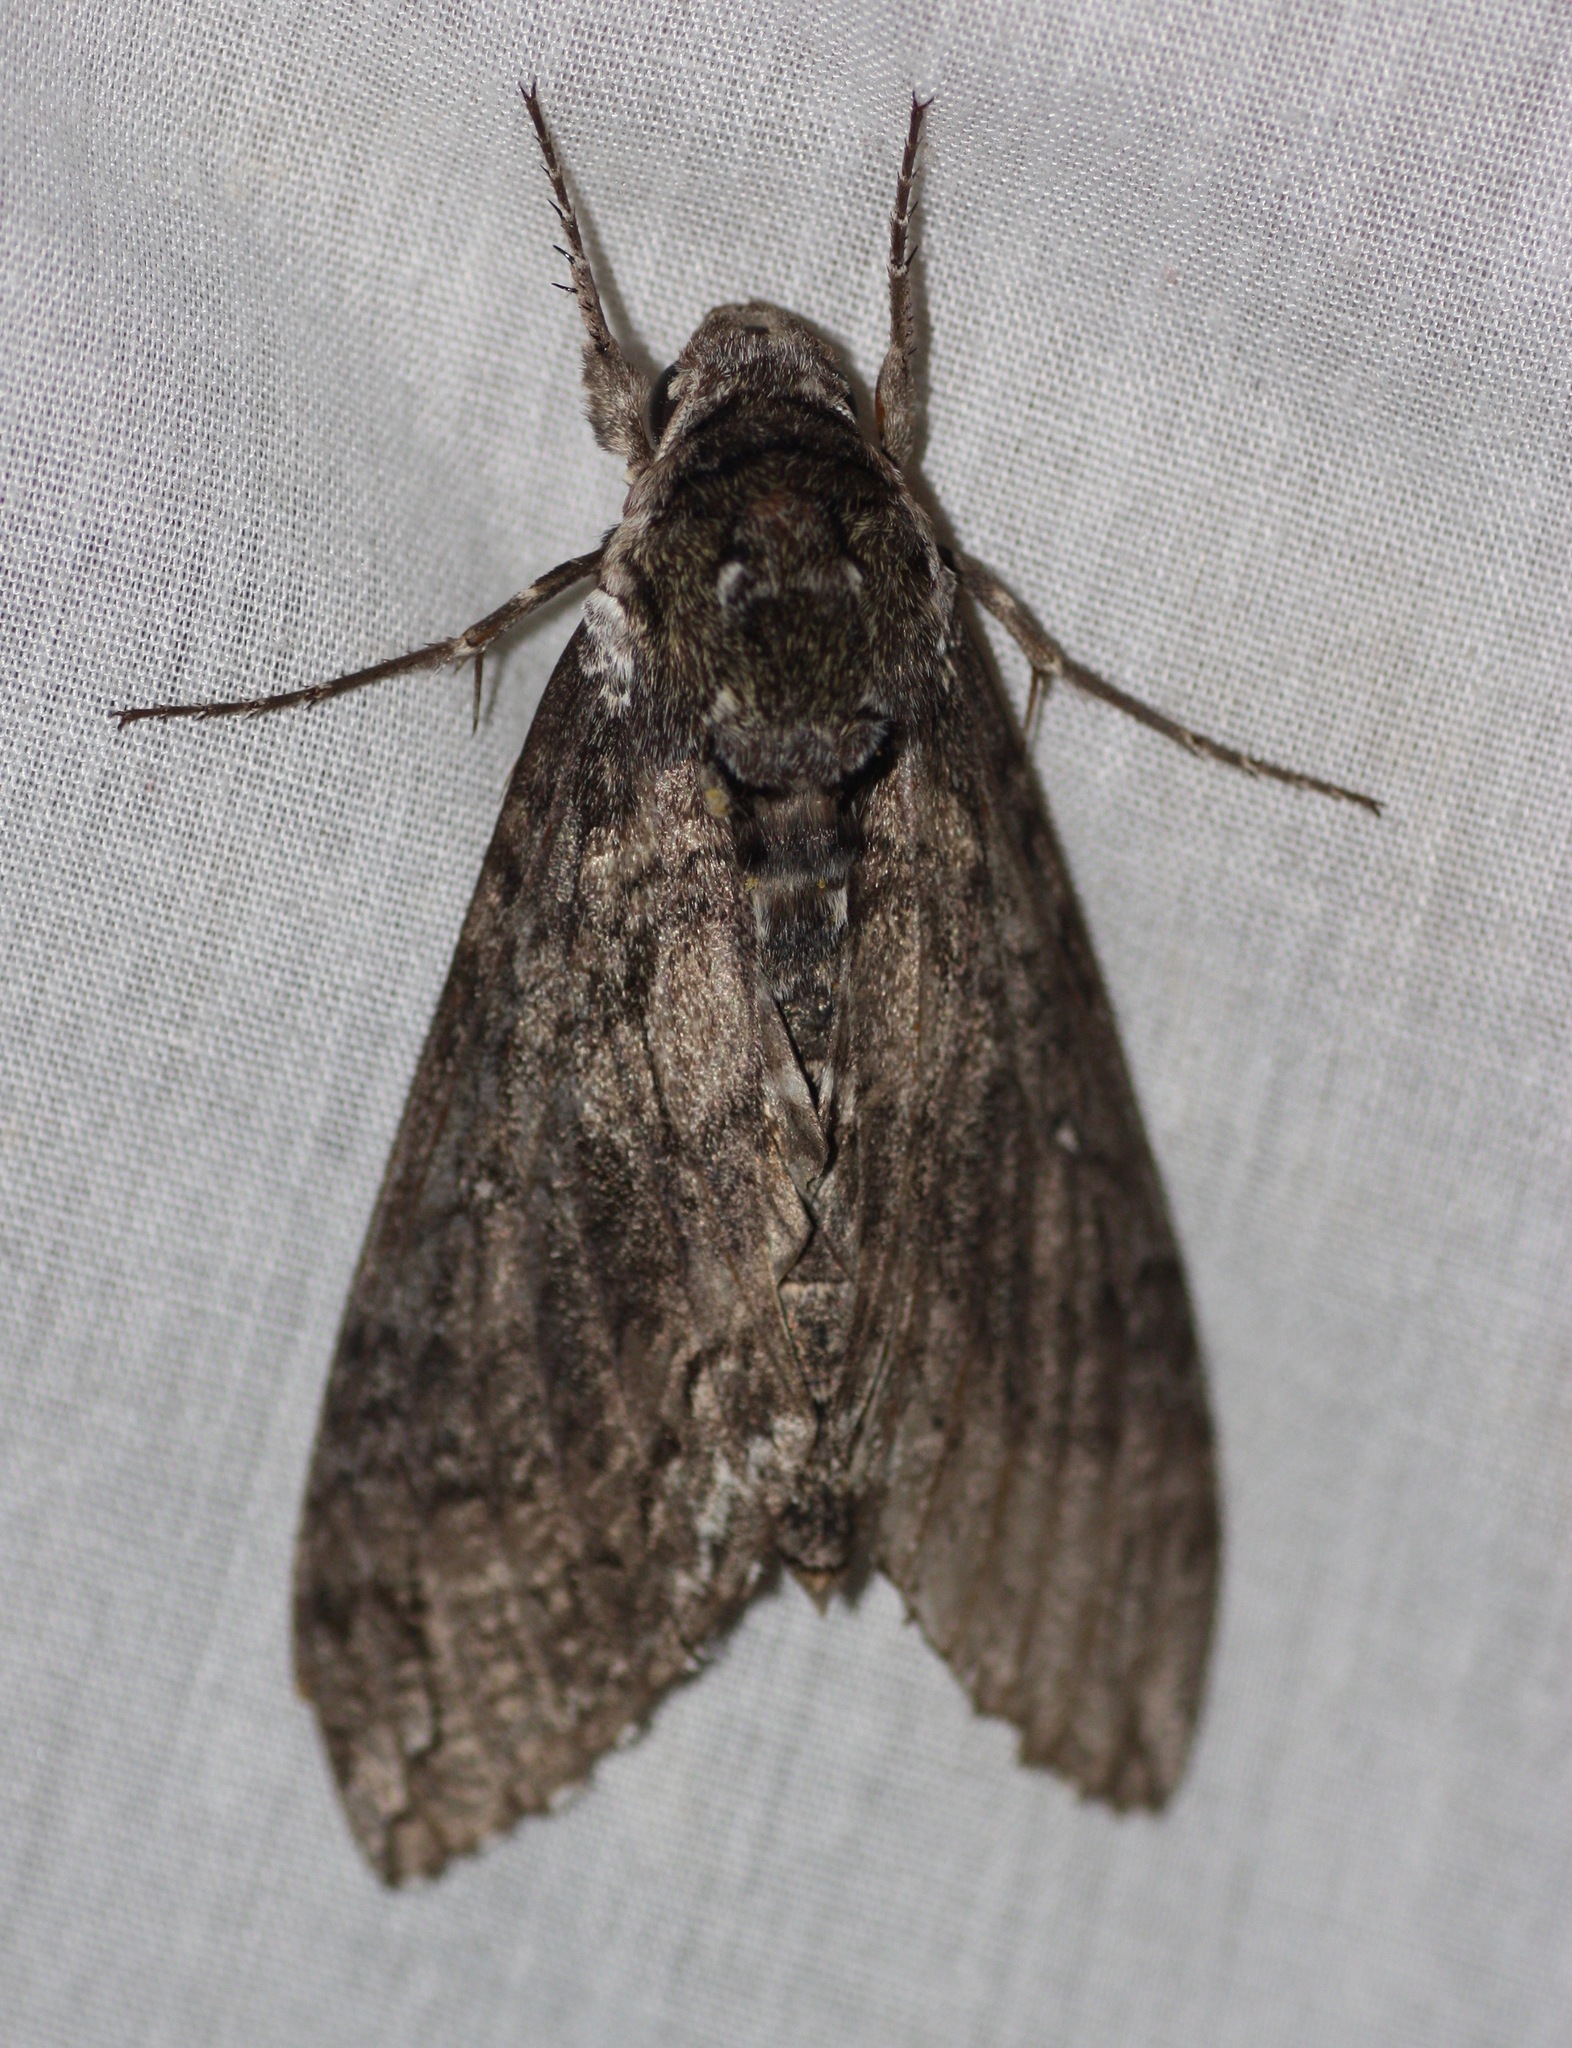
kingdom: Animalia
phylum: Arthropoda
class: Insecta
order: Lepidoptera
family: Sphingidae
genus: Manduca
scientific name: Manduca sexta
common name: Carolina sphinx
